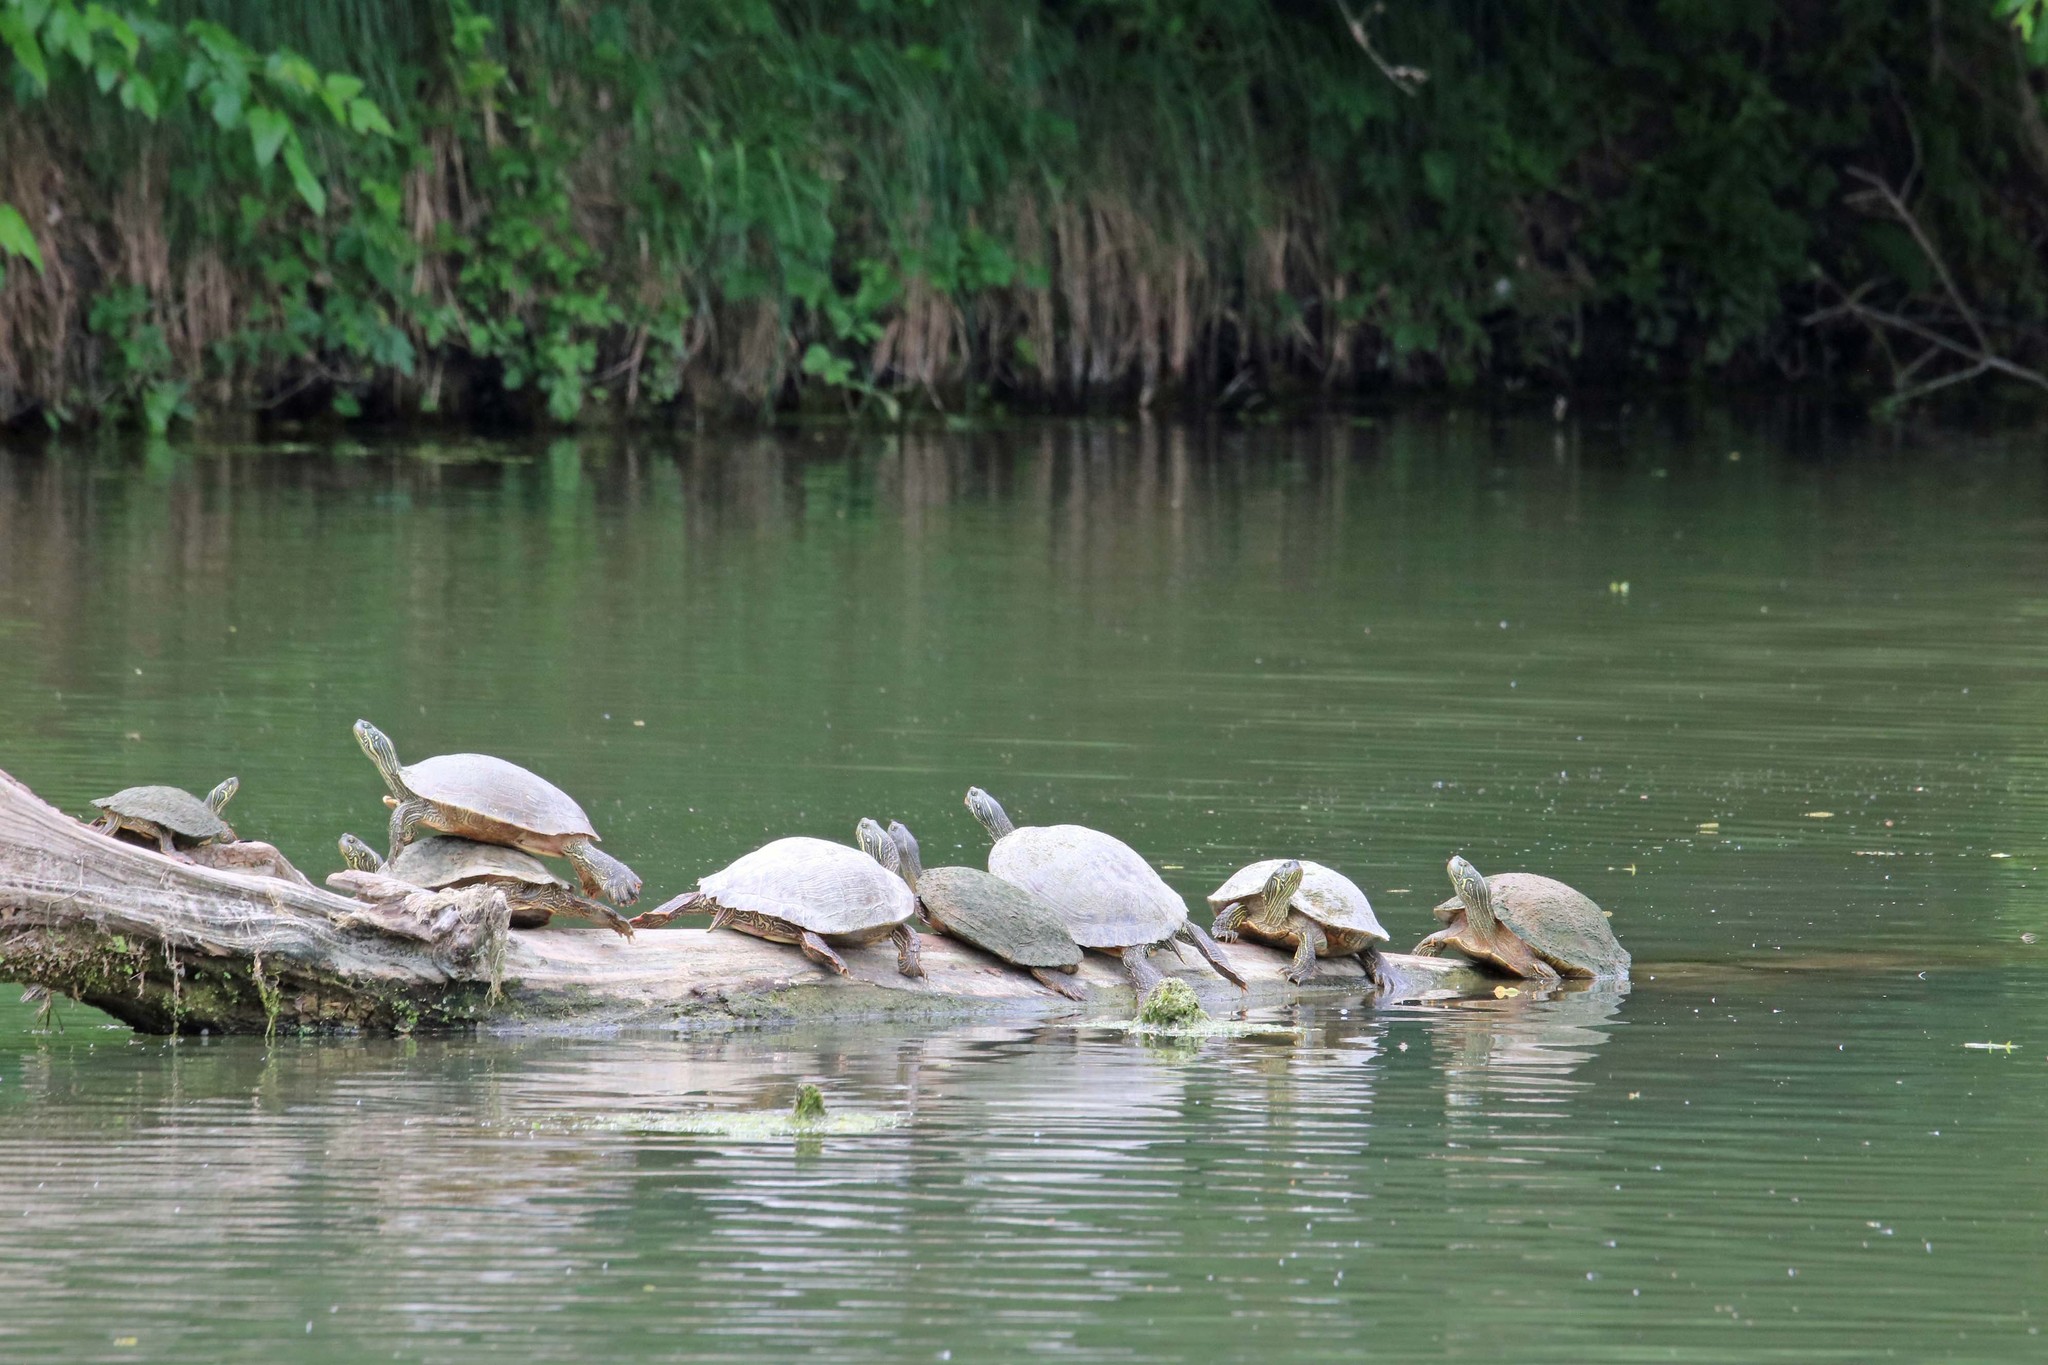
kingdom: Animalia
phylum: Chordata
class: Testudines
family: Emydidae
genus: Pseudemys
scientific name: Pseudemys texana
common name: Texas river cooter
